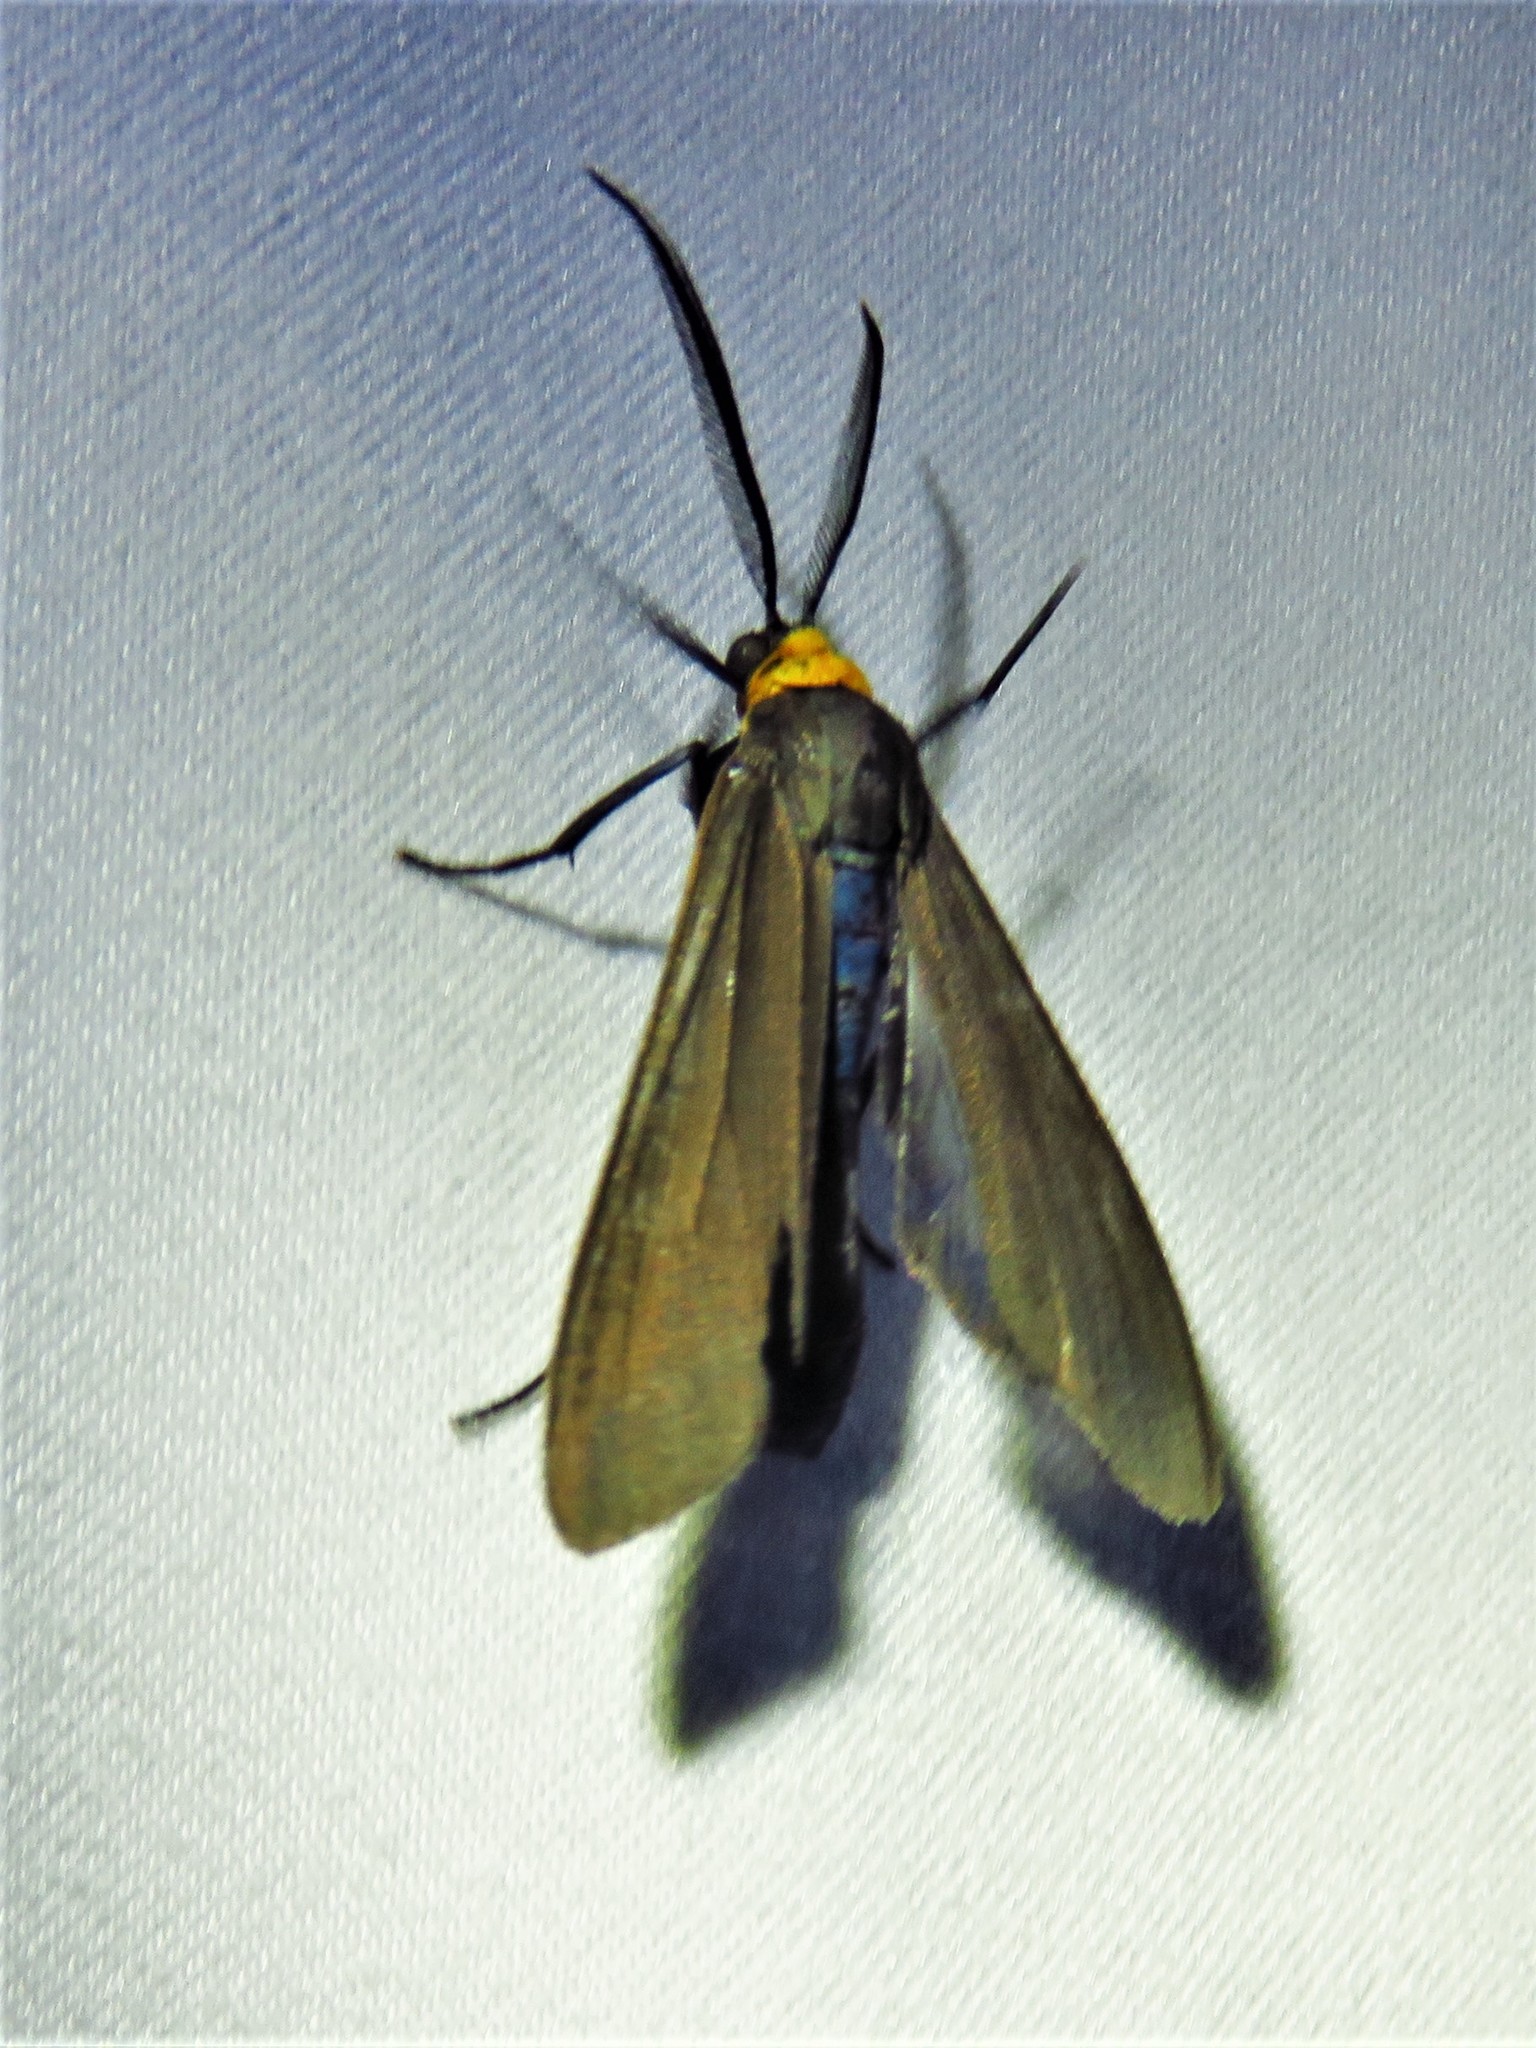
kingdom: Animalia
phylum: Arthropoda
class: Insecta
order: Lepidoptera
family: Erebidae
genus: Cisseps
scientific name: Cisseps fulvicollis
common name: Yellow-collared scape moth
